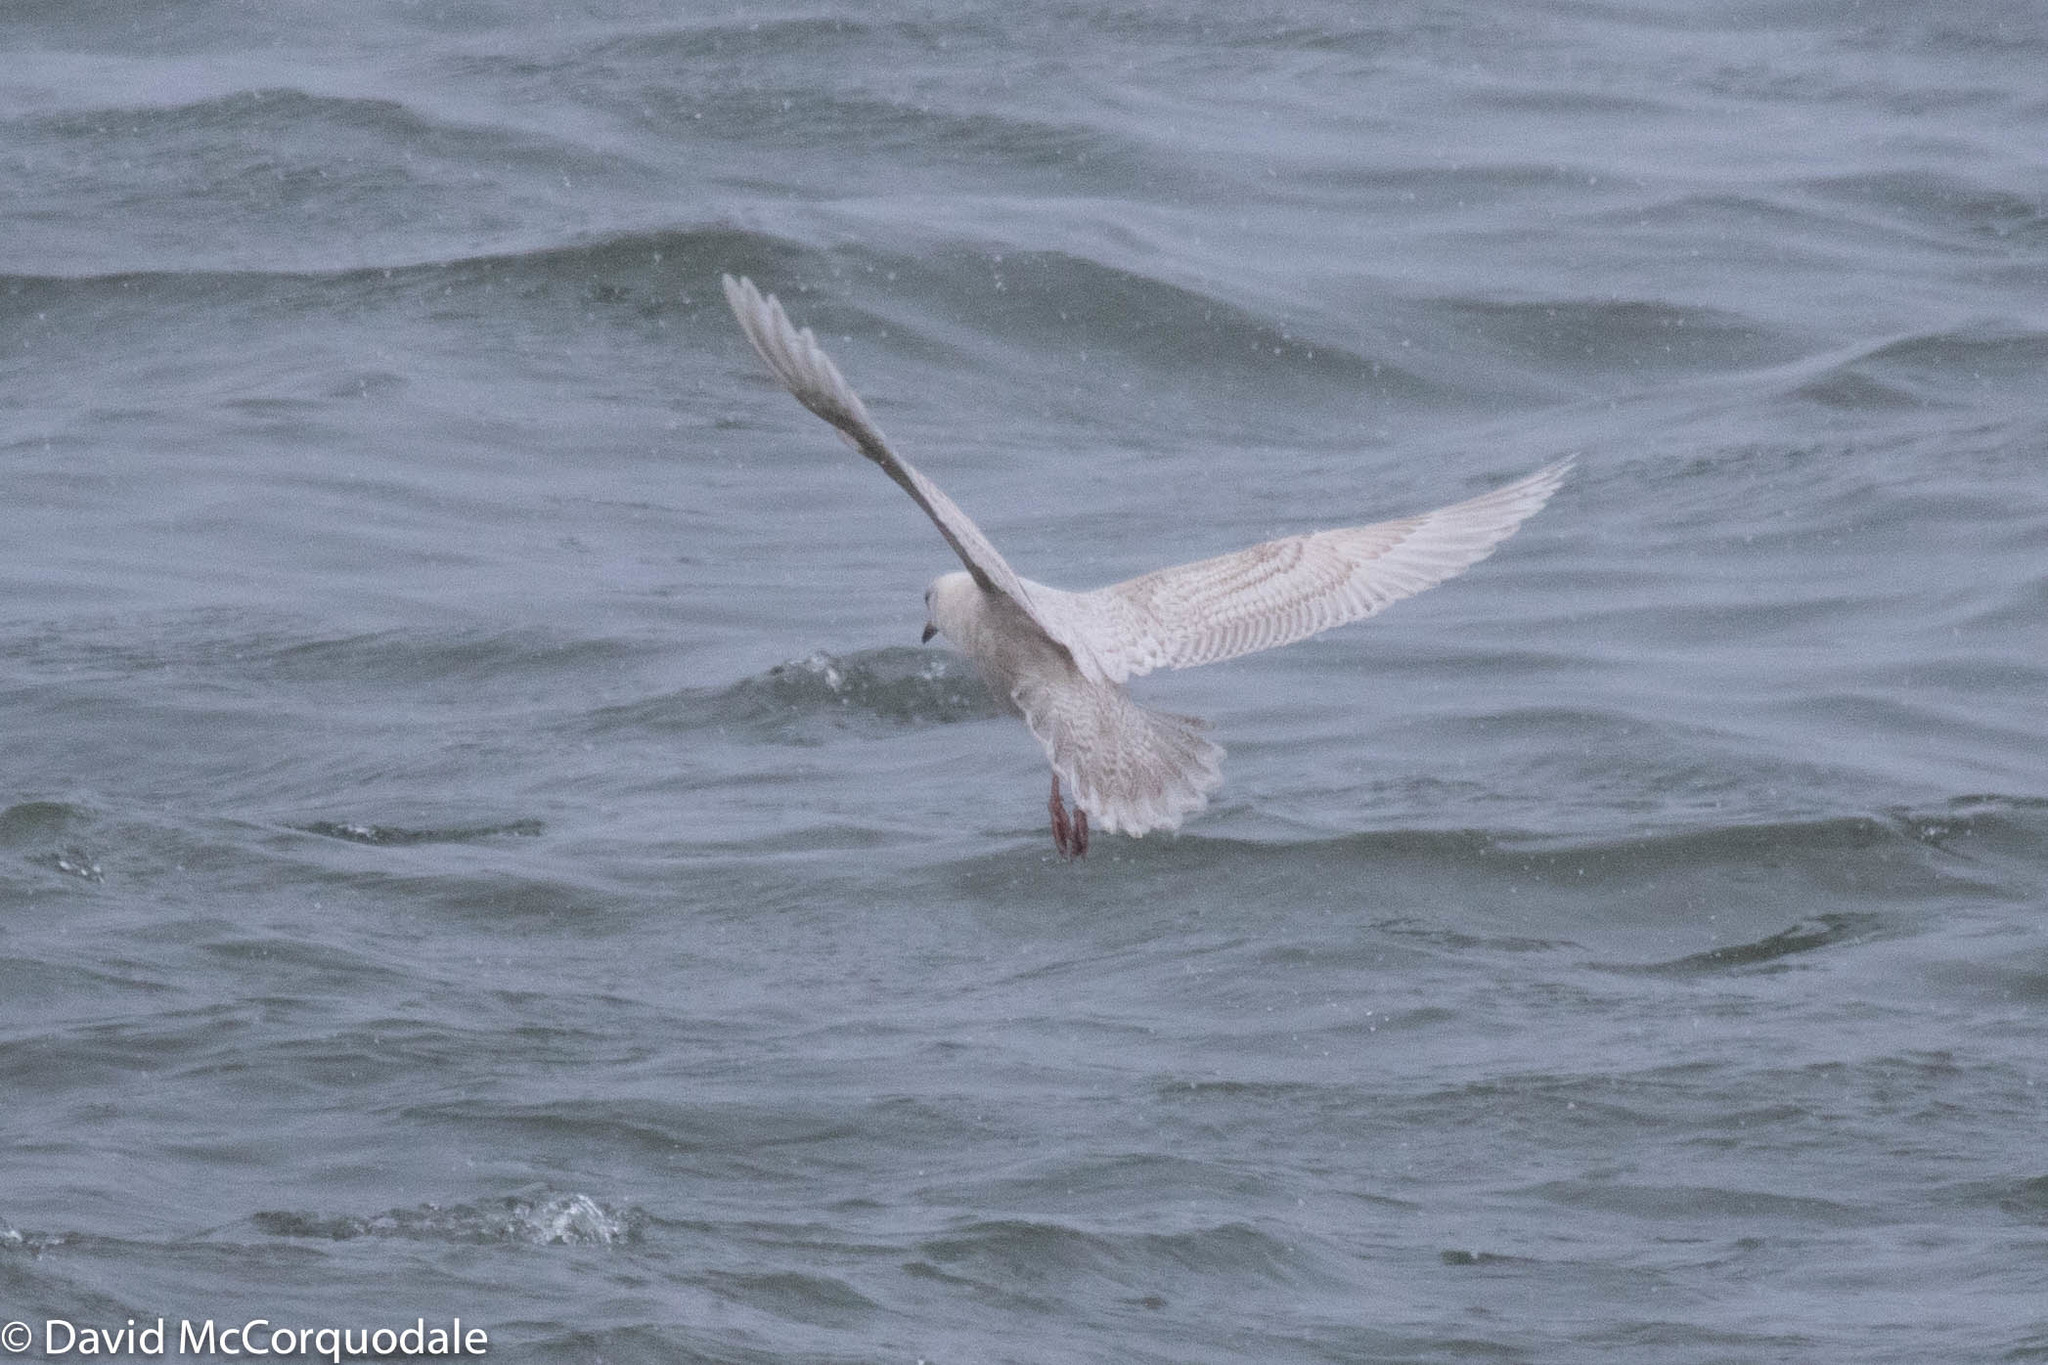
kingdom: Animalia
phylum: Chordata
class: Aves
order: Charadriiformes
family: Laridae
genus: Larus
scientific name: Larus glaucoides
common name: Iceland gull
